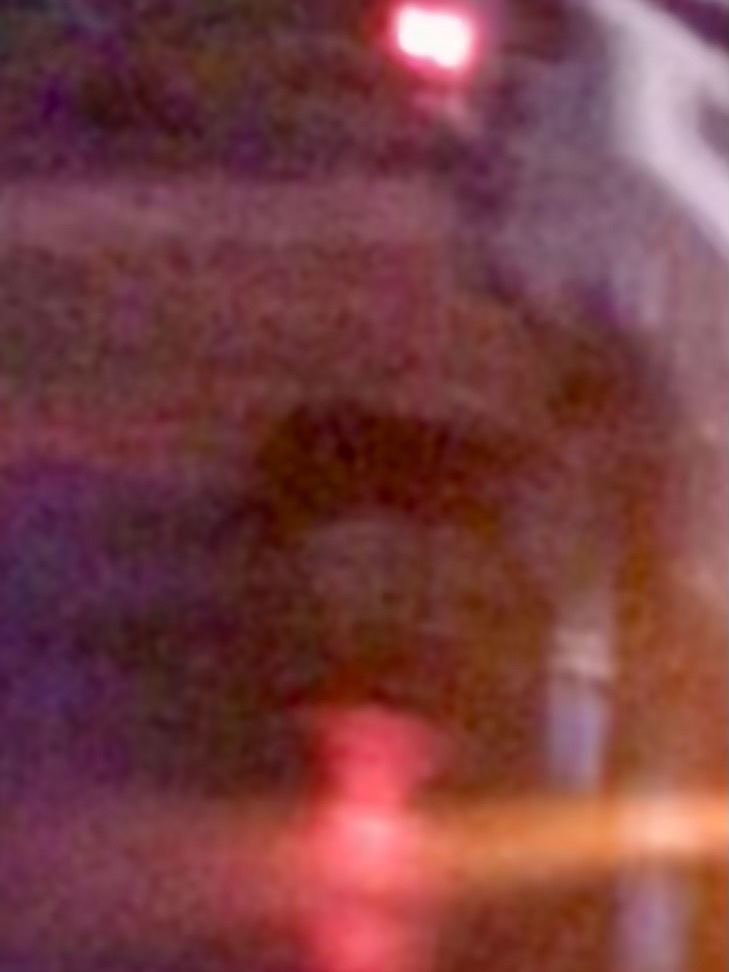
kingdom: Animalia
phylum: Chordata
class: Mammalia
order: Carnivora
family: Felidae
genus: Felis
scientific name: Felis catus
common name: Domestic cat
